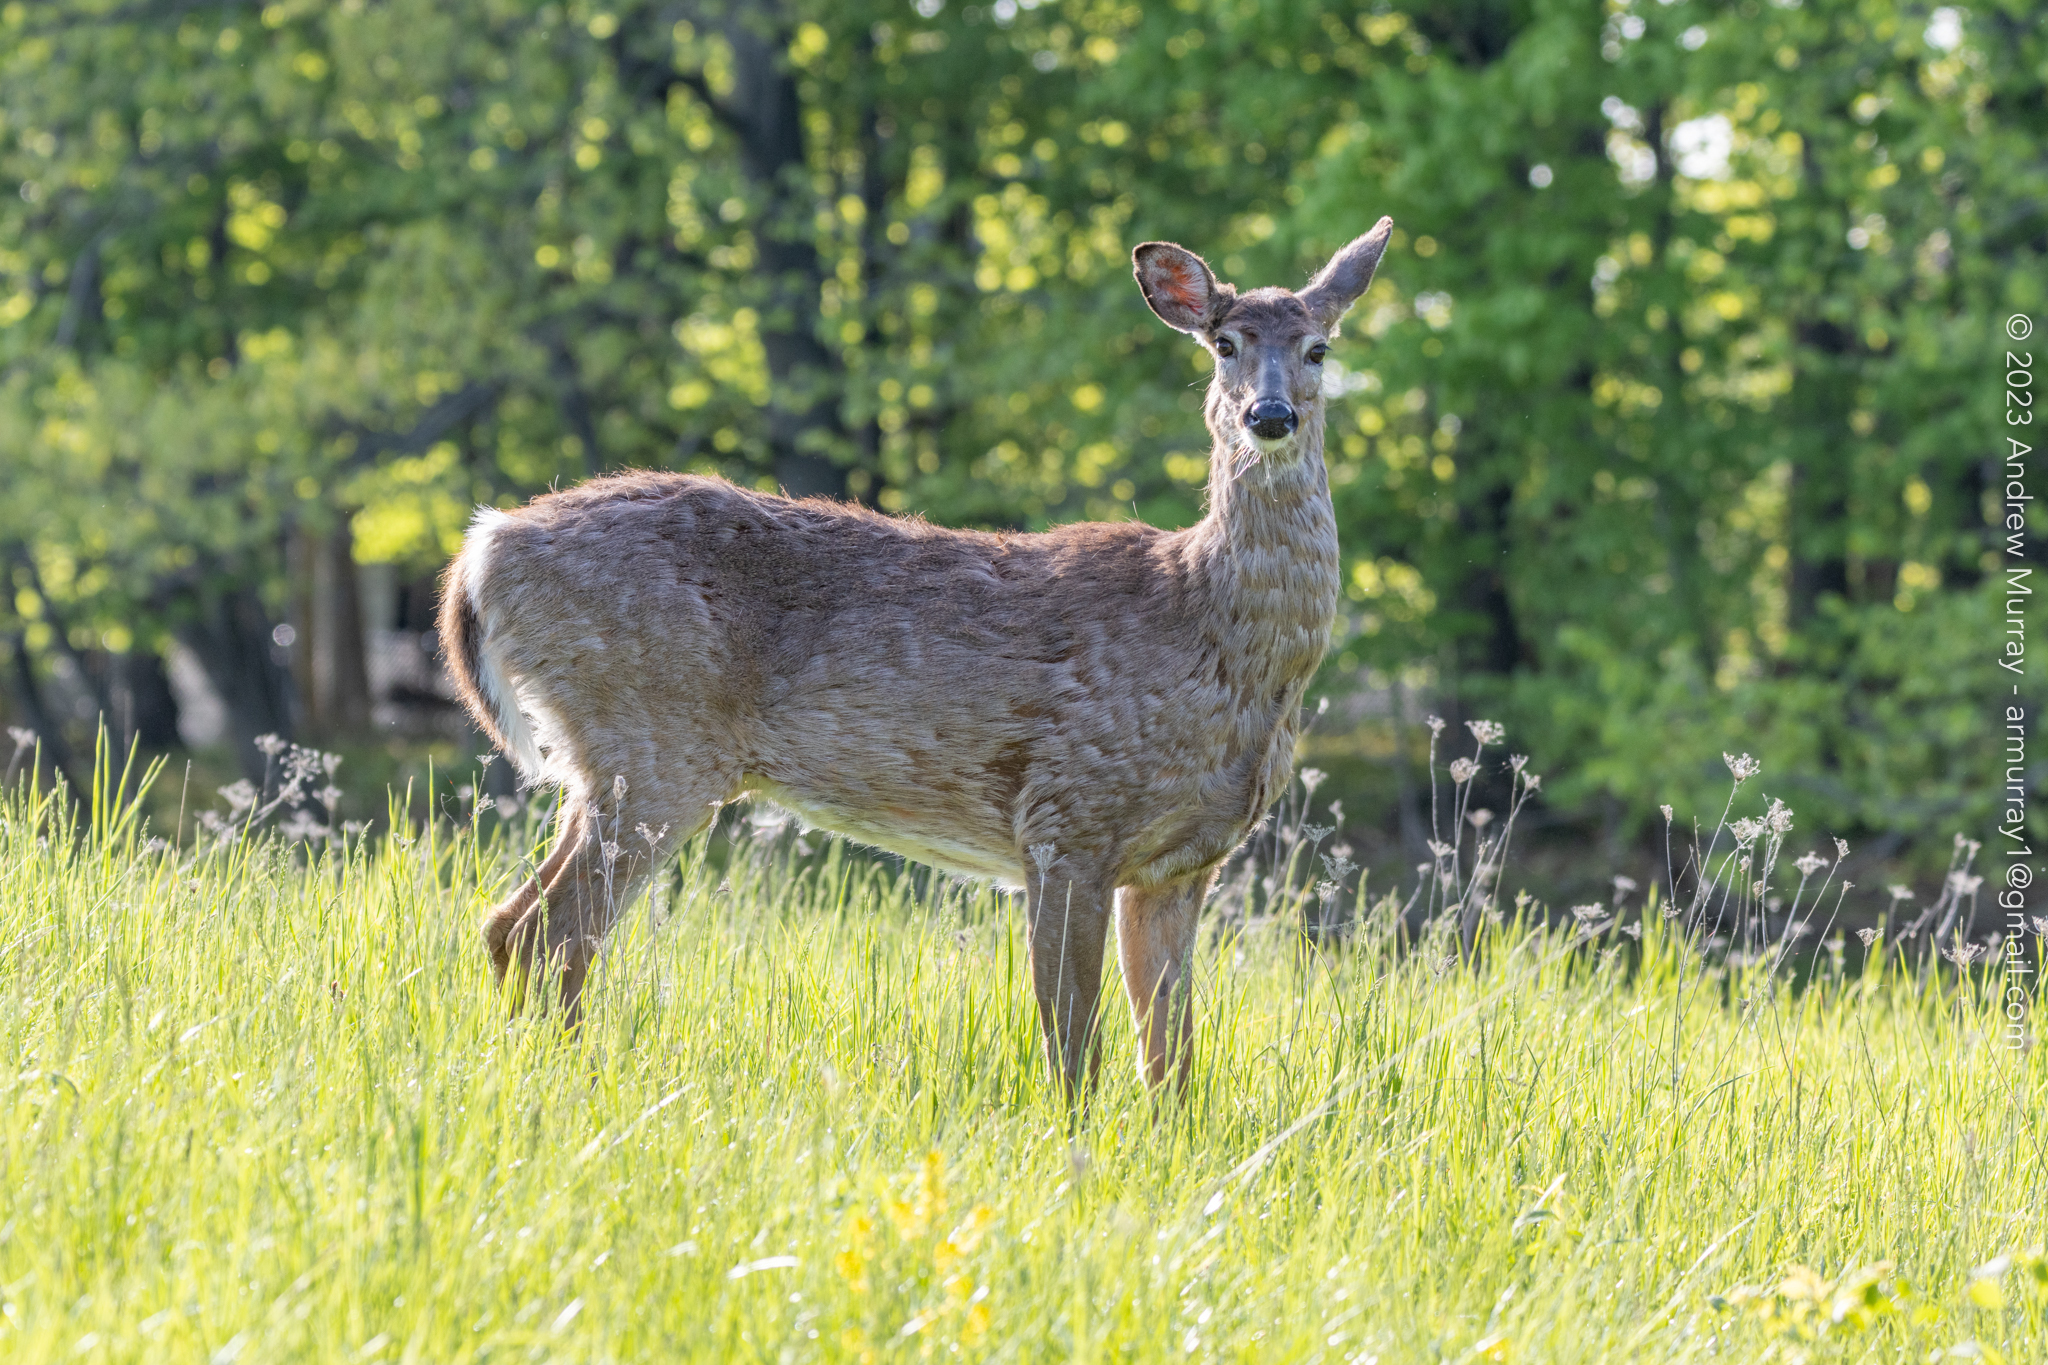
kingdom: Animalia
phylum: Chordata
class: Mammalia
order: Artiodactyla
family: Cervidae
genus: Odocoileus
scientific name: Odocoileus virginianus
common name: White-tailed deer
